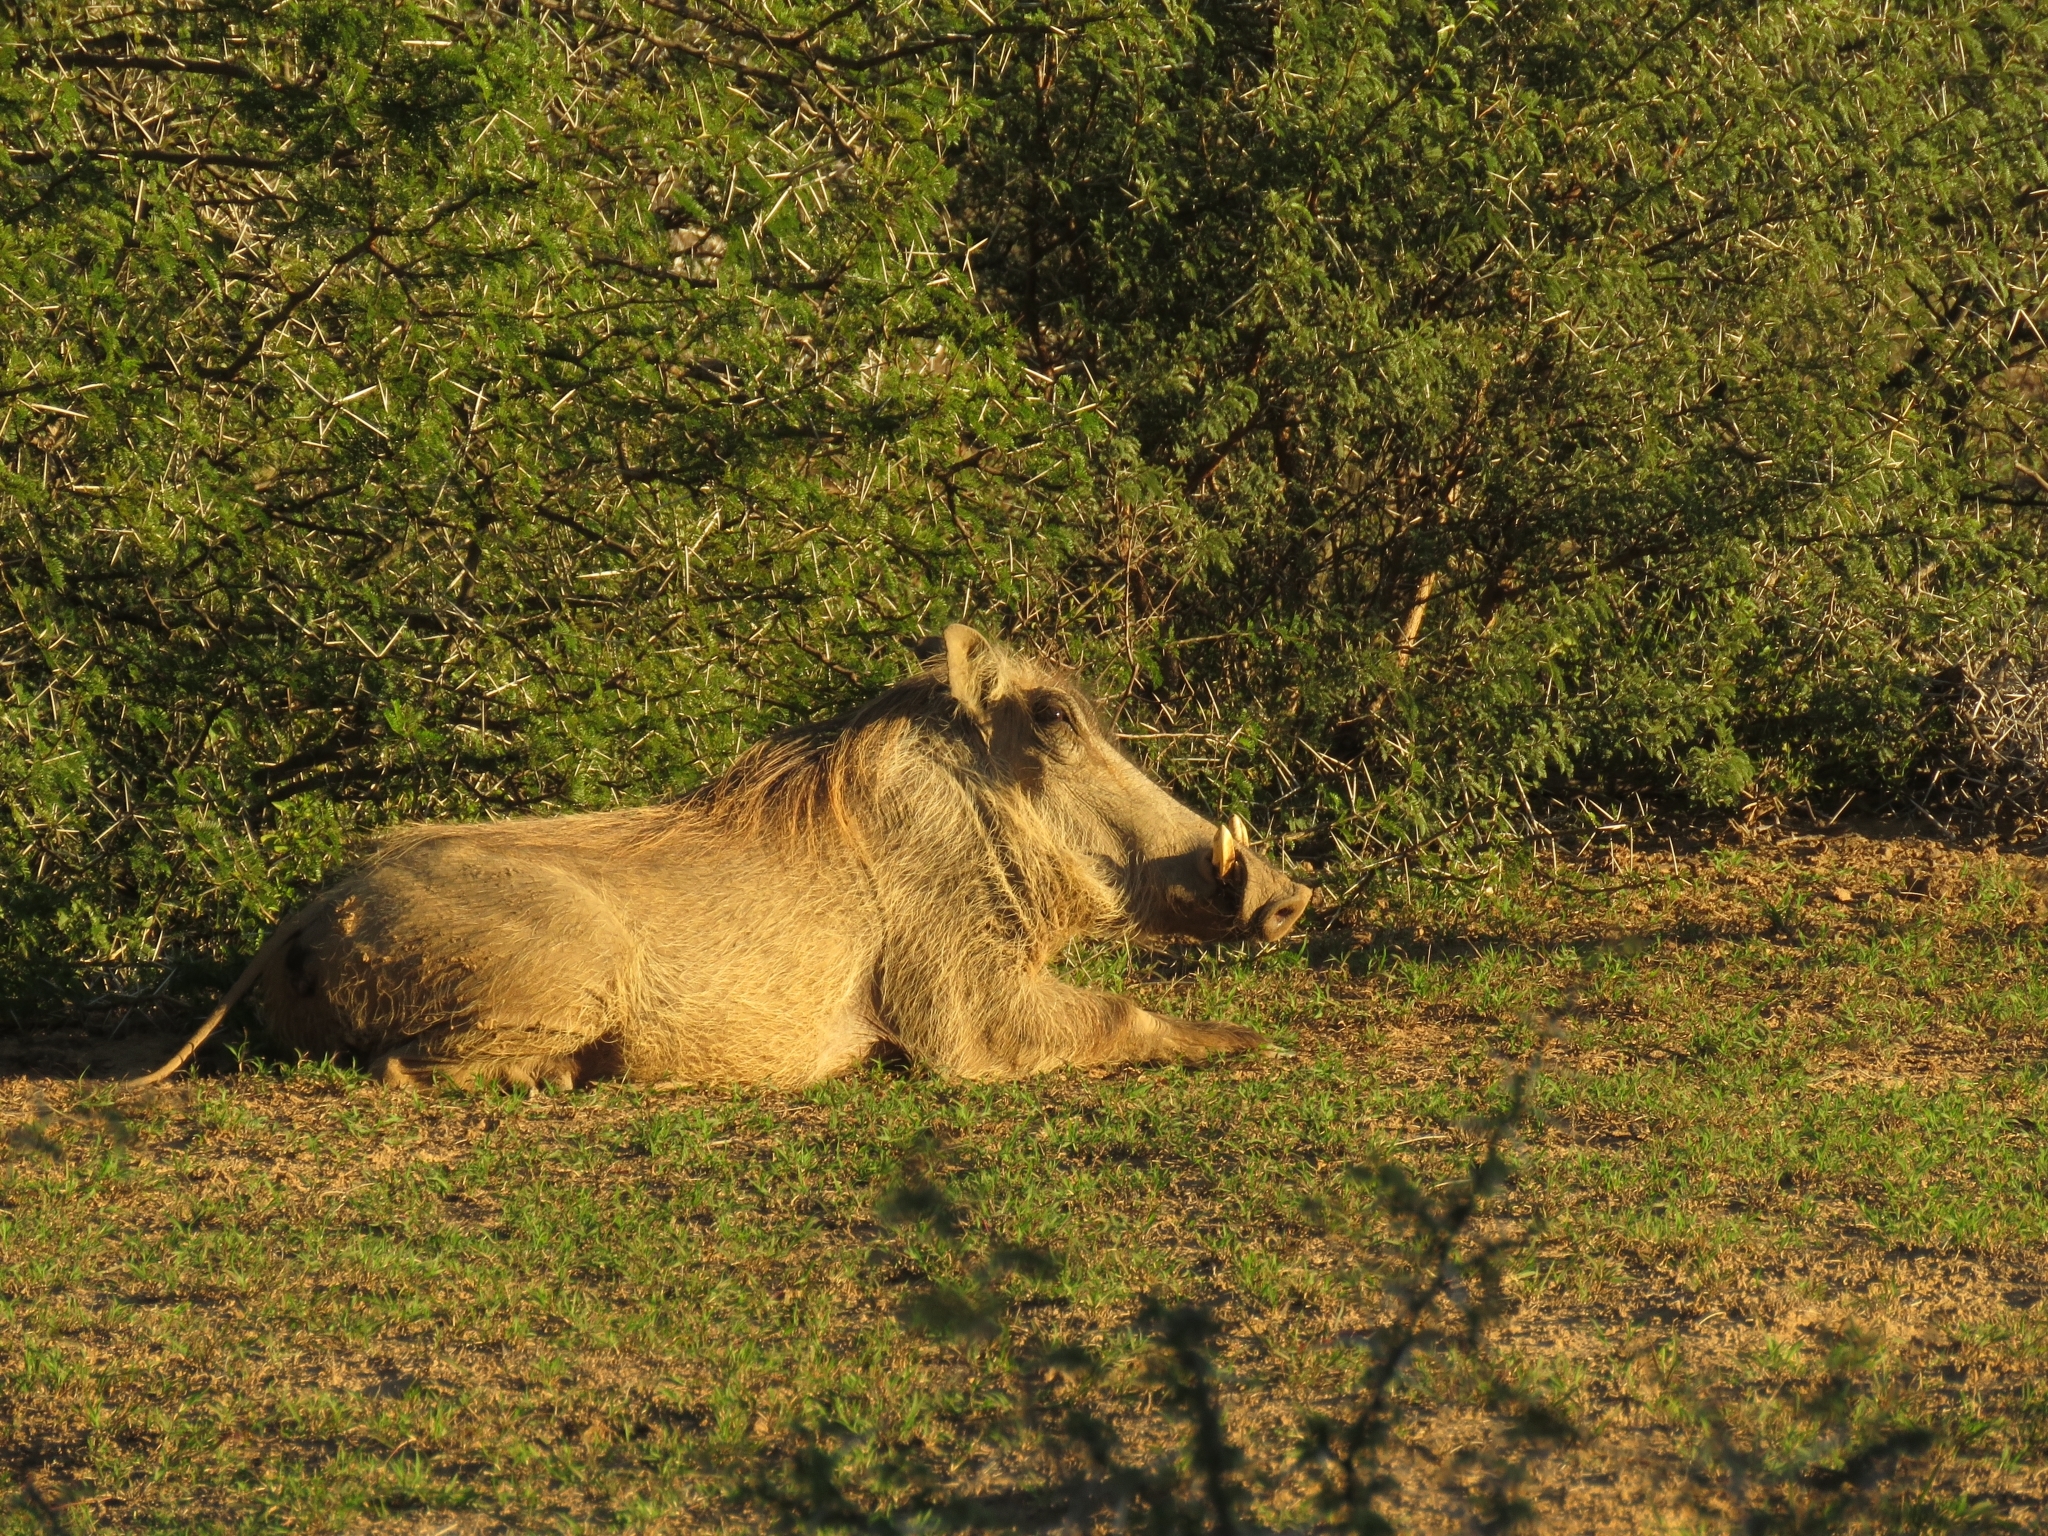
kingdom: Animalia
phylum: Chordata
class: Mammalia
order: Artiodactyla
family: Suidae
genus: Phacochoerus
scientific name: Phacochoerus africanus
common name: Common warthog
